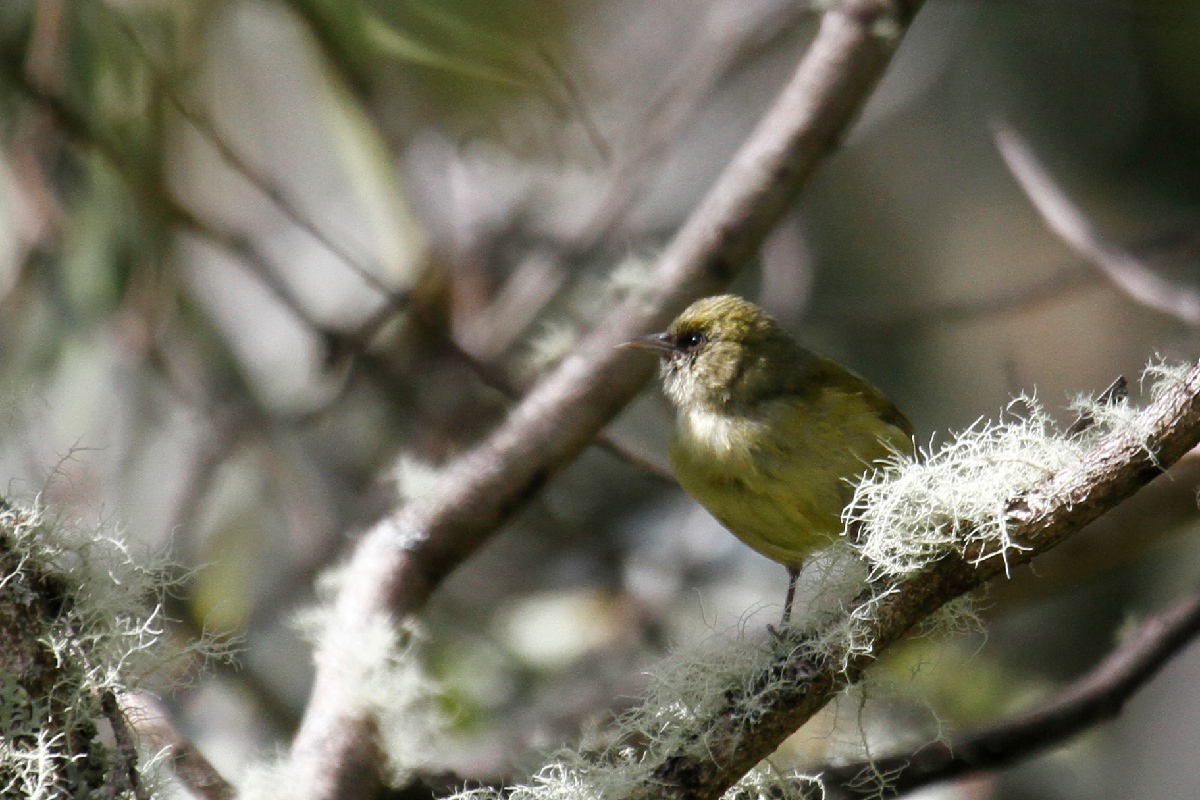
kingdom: Animalia
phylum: Chordata
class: Aves
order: Passeriformes
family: Fringillidae
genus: Loxops
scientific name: Loxops mana
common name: Hawaii creeper
